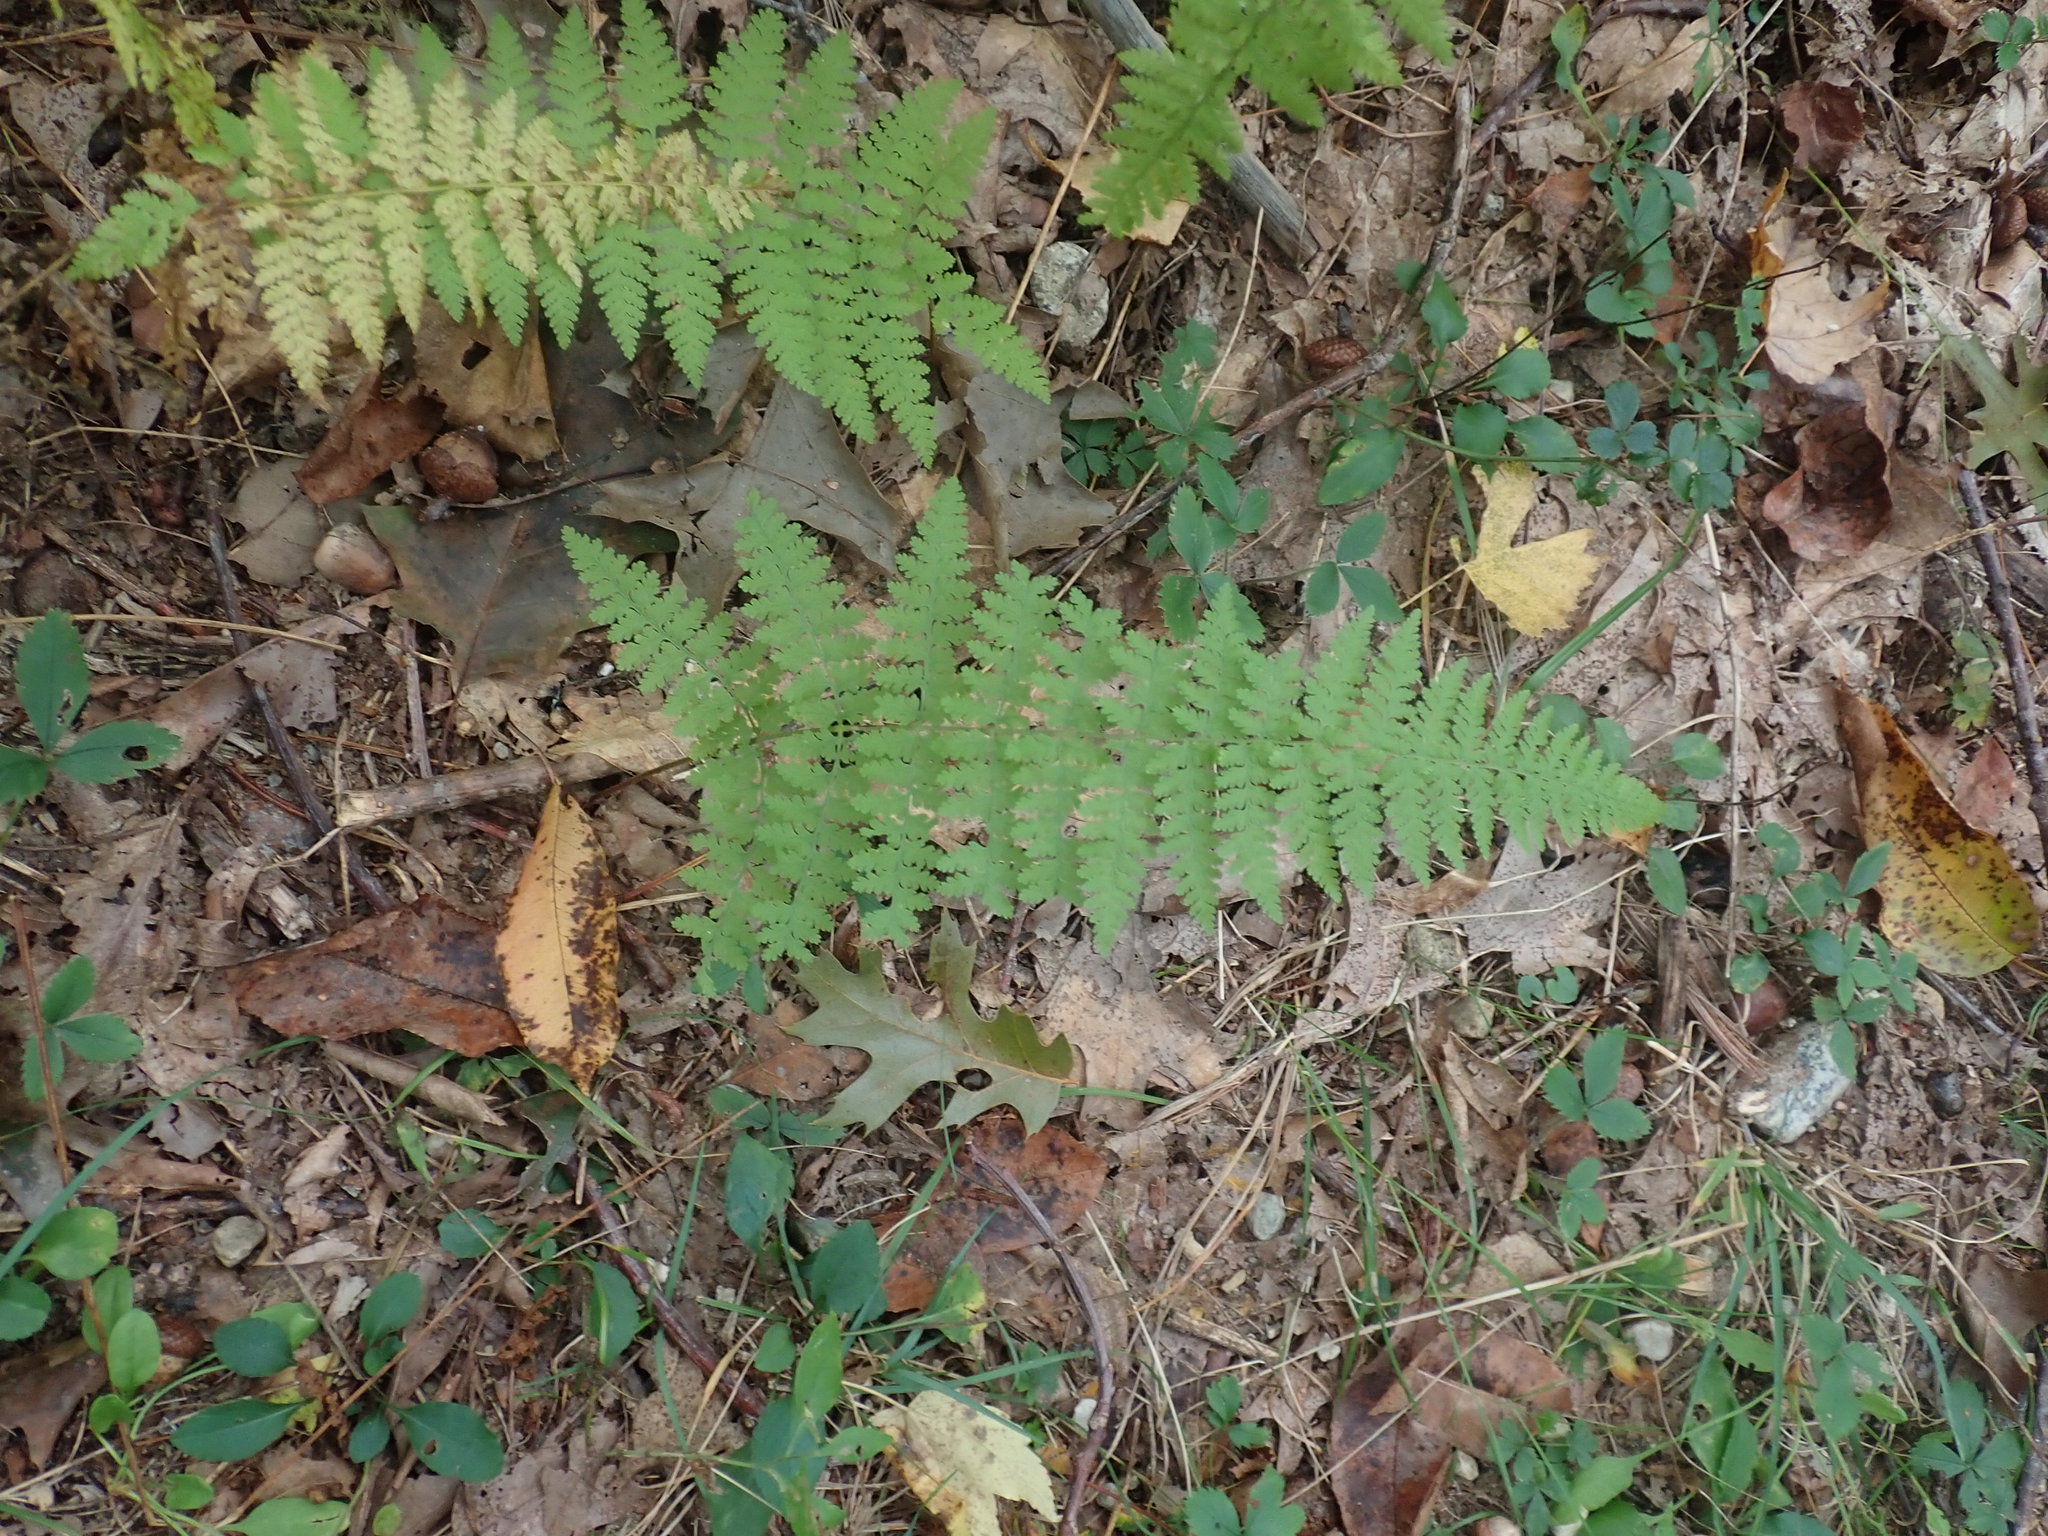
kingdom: Plantae
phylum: Tracheophyta
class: Polypodiopsida
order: Polypodiales
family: Dennstaedtiaceae
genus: Sitobolium
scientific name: Sitobolium punctilobum
